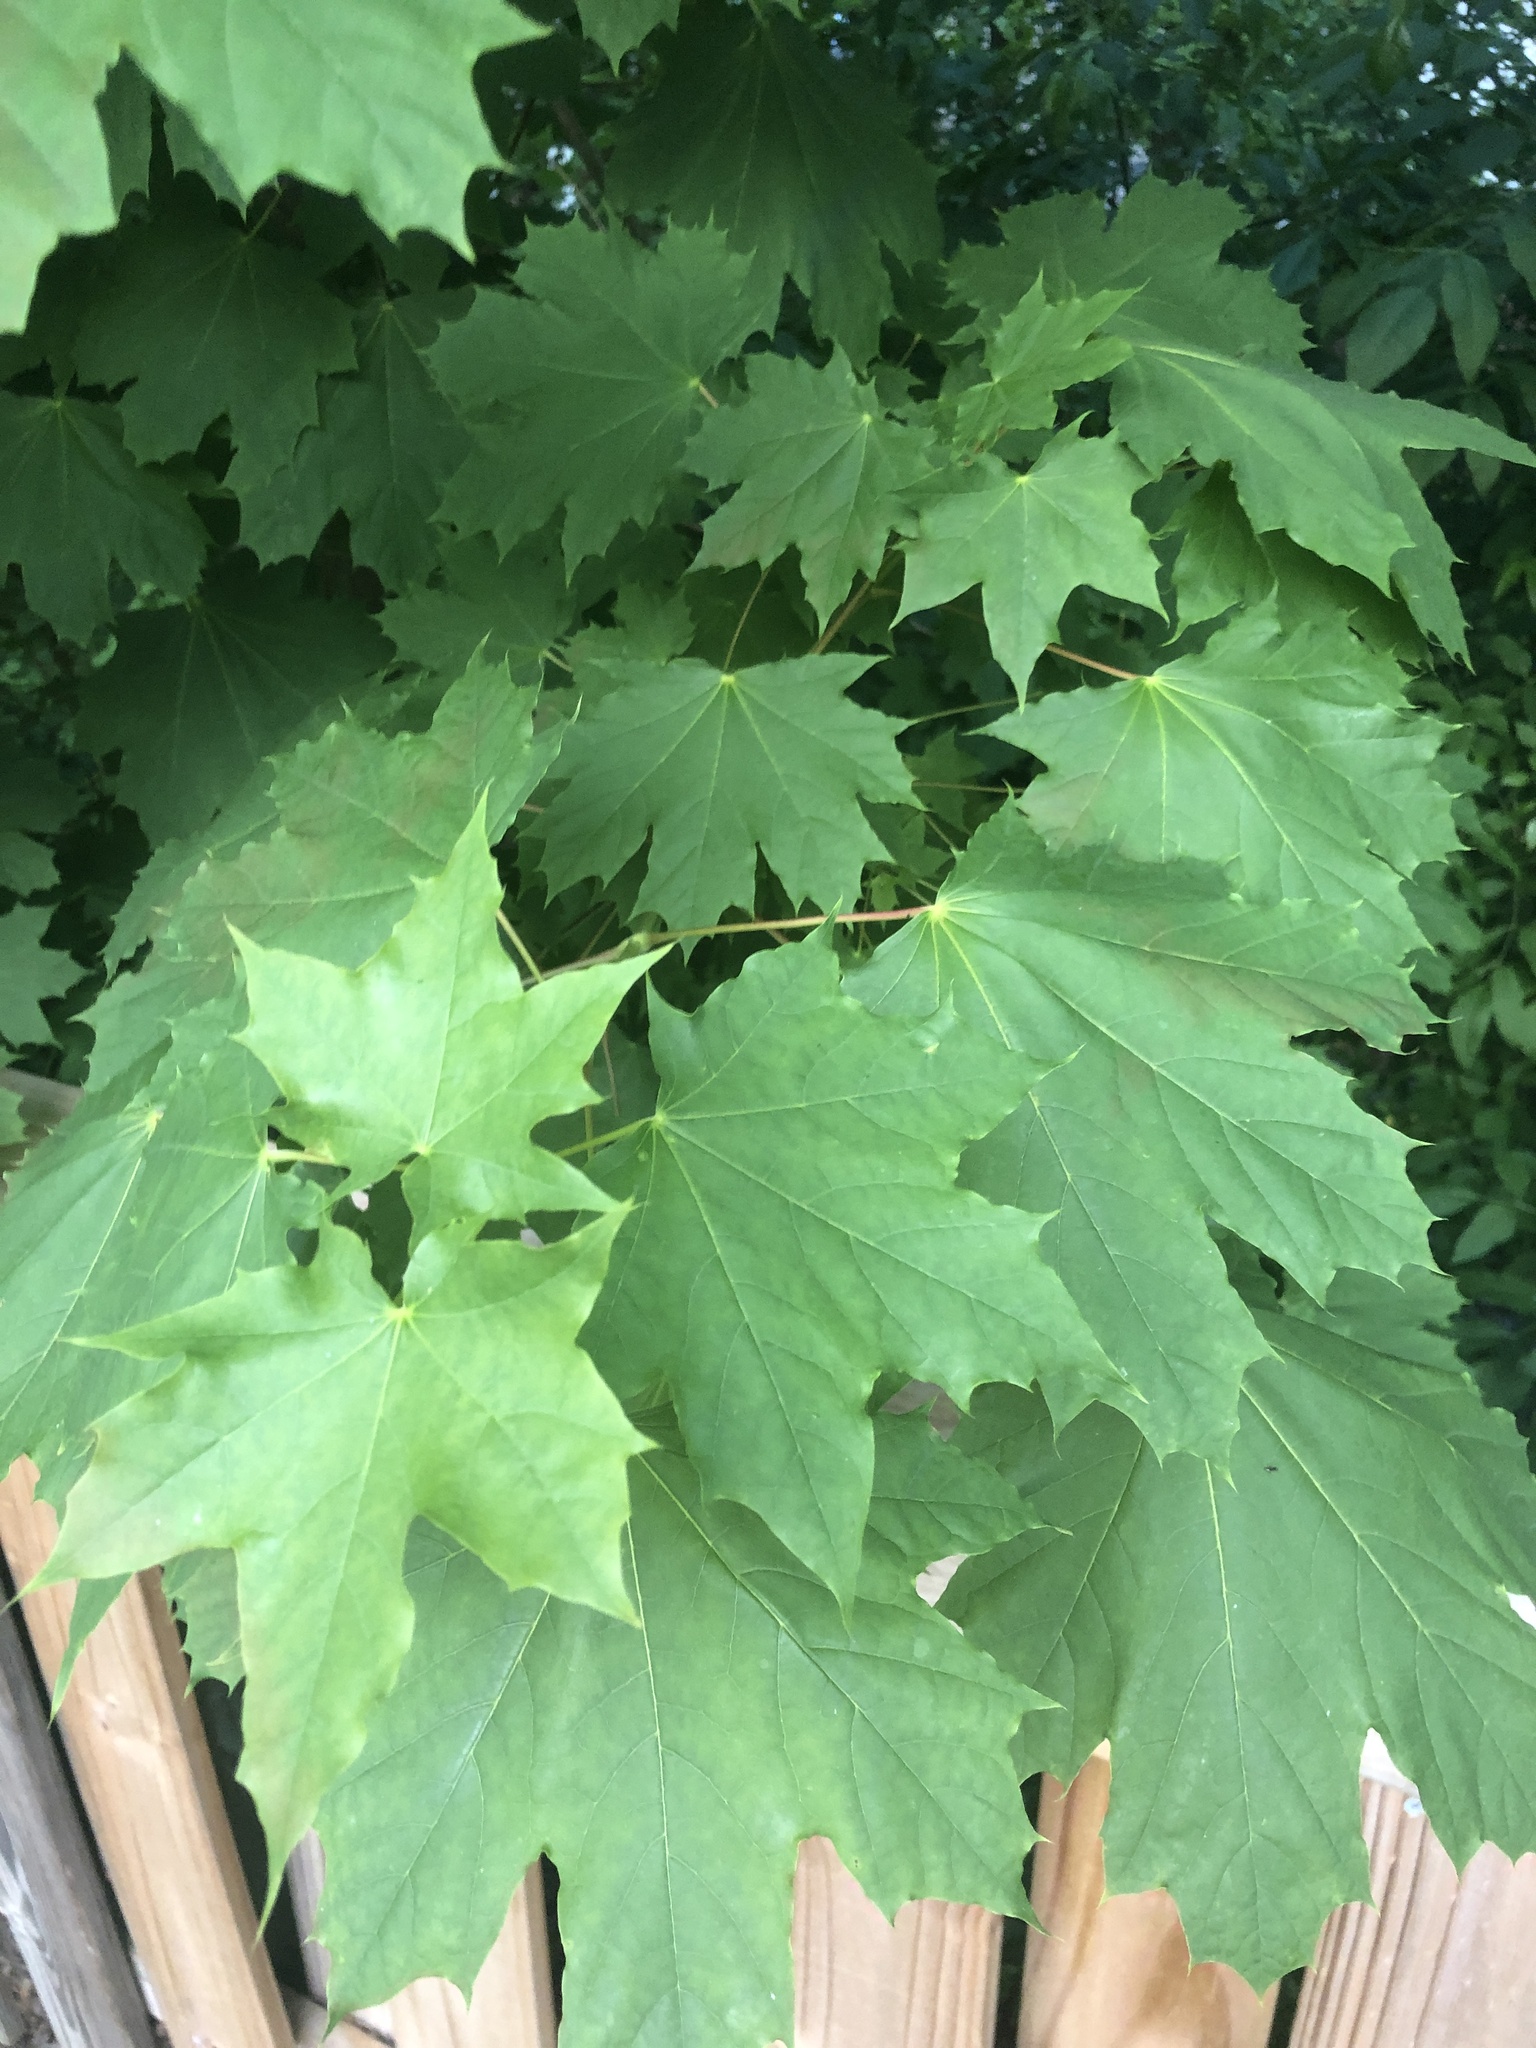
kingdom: Plantae
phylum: Tracheophyta
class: Magnoliopsida
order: Sapindales
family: Sapindaceae
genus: Acer
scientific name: Acer platanoides
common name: Norway maple
